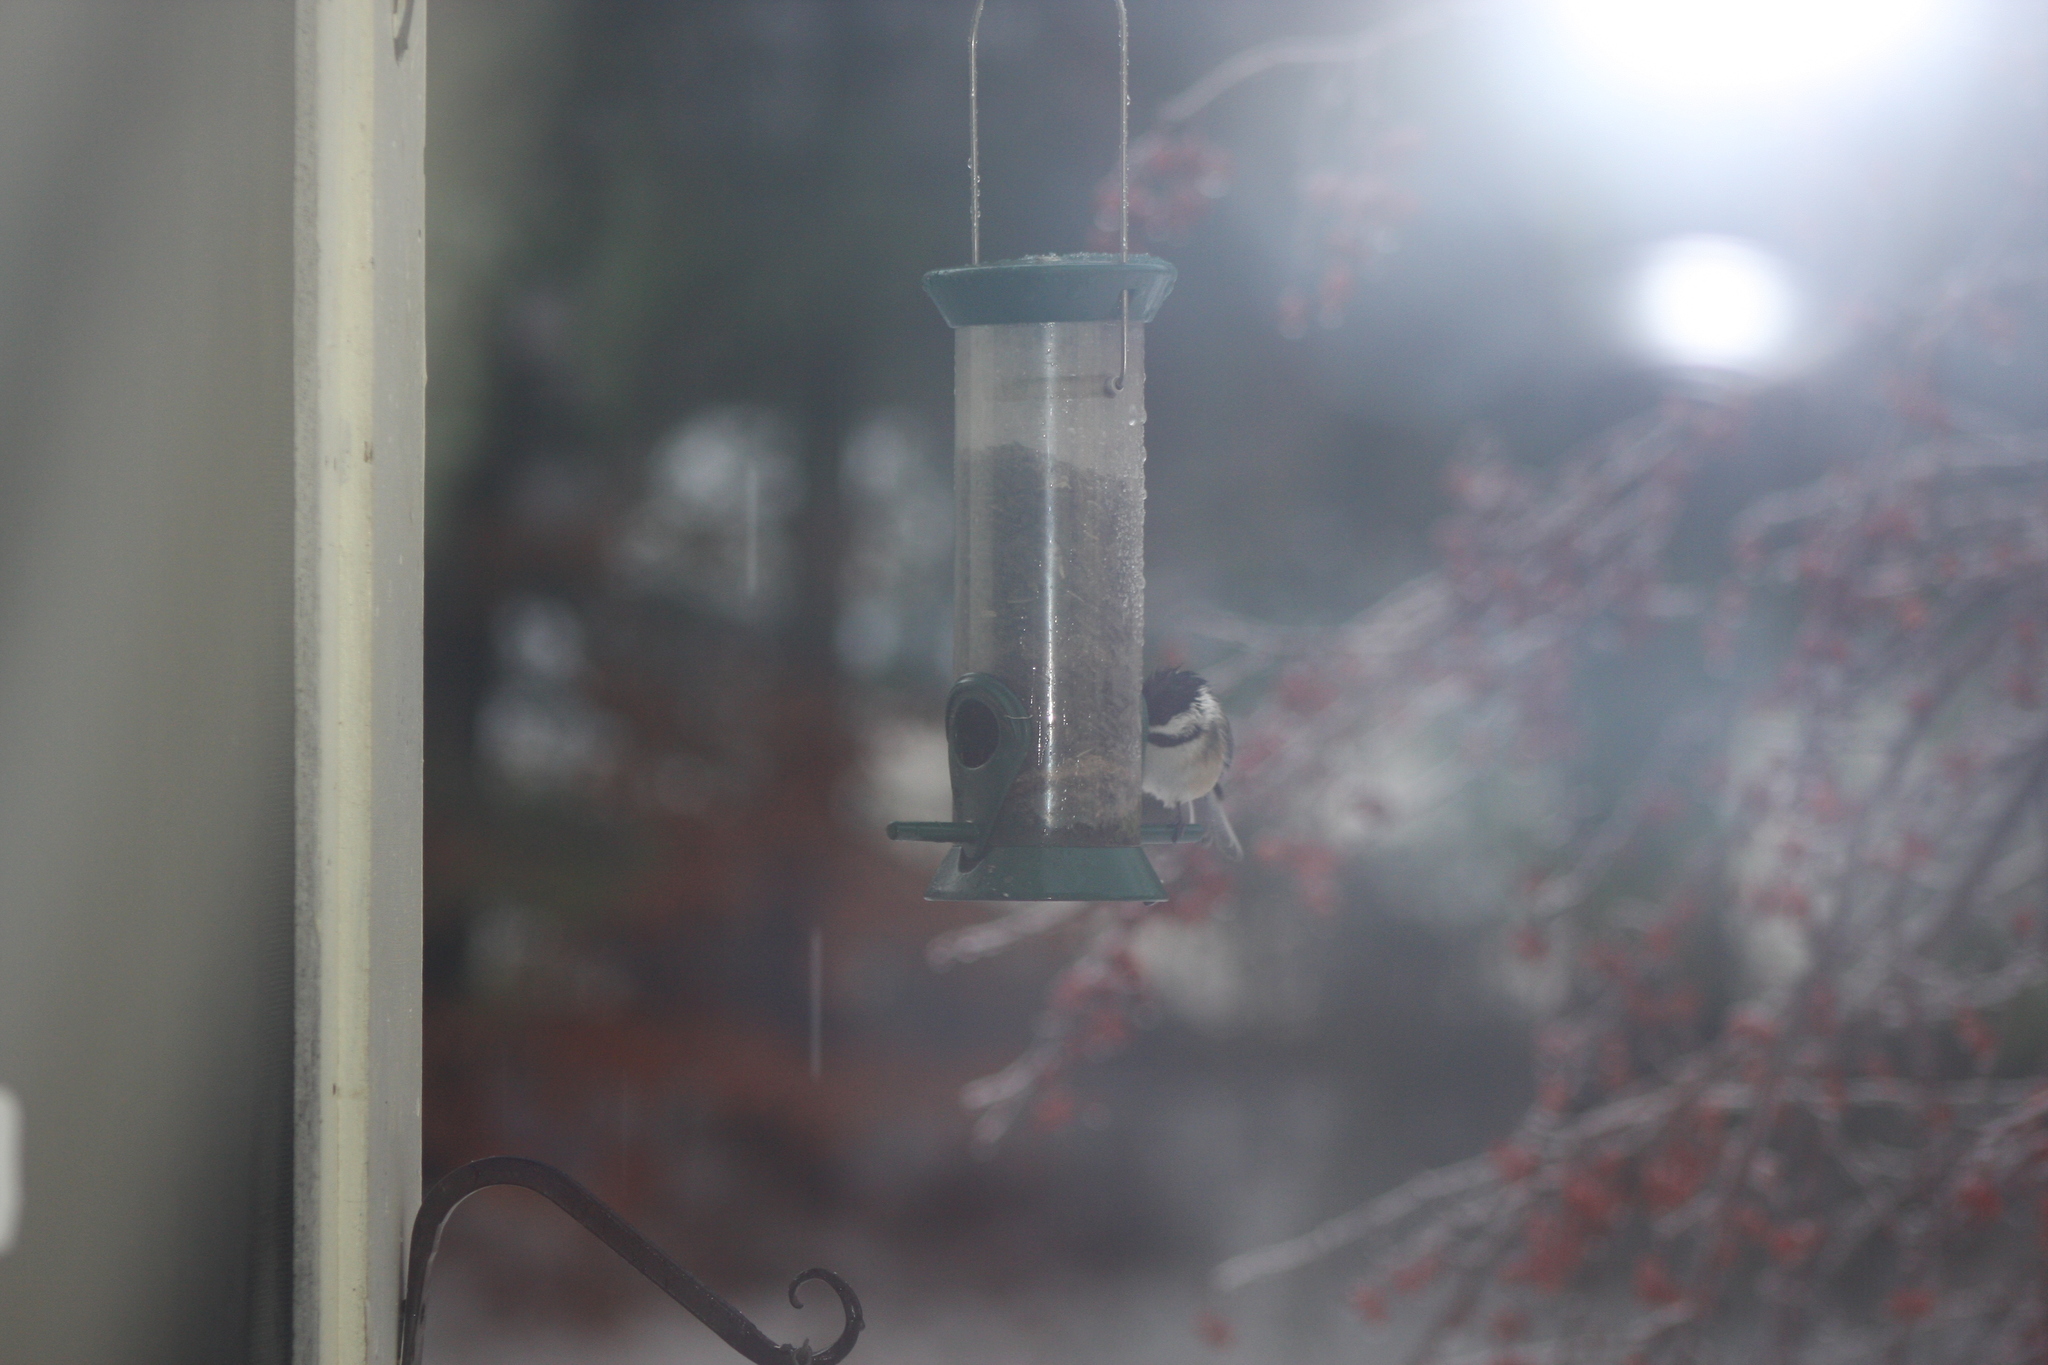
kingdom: Animalia
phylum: Chordata
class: Aves
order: Passeriformes
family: Paridae
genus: Poecile
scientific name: Poecile atricapillus
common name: Black-capped chickadee
